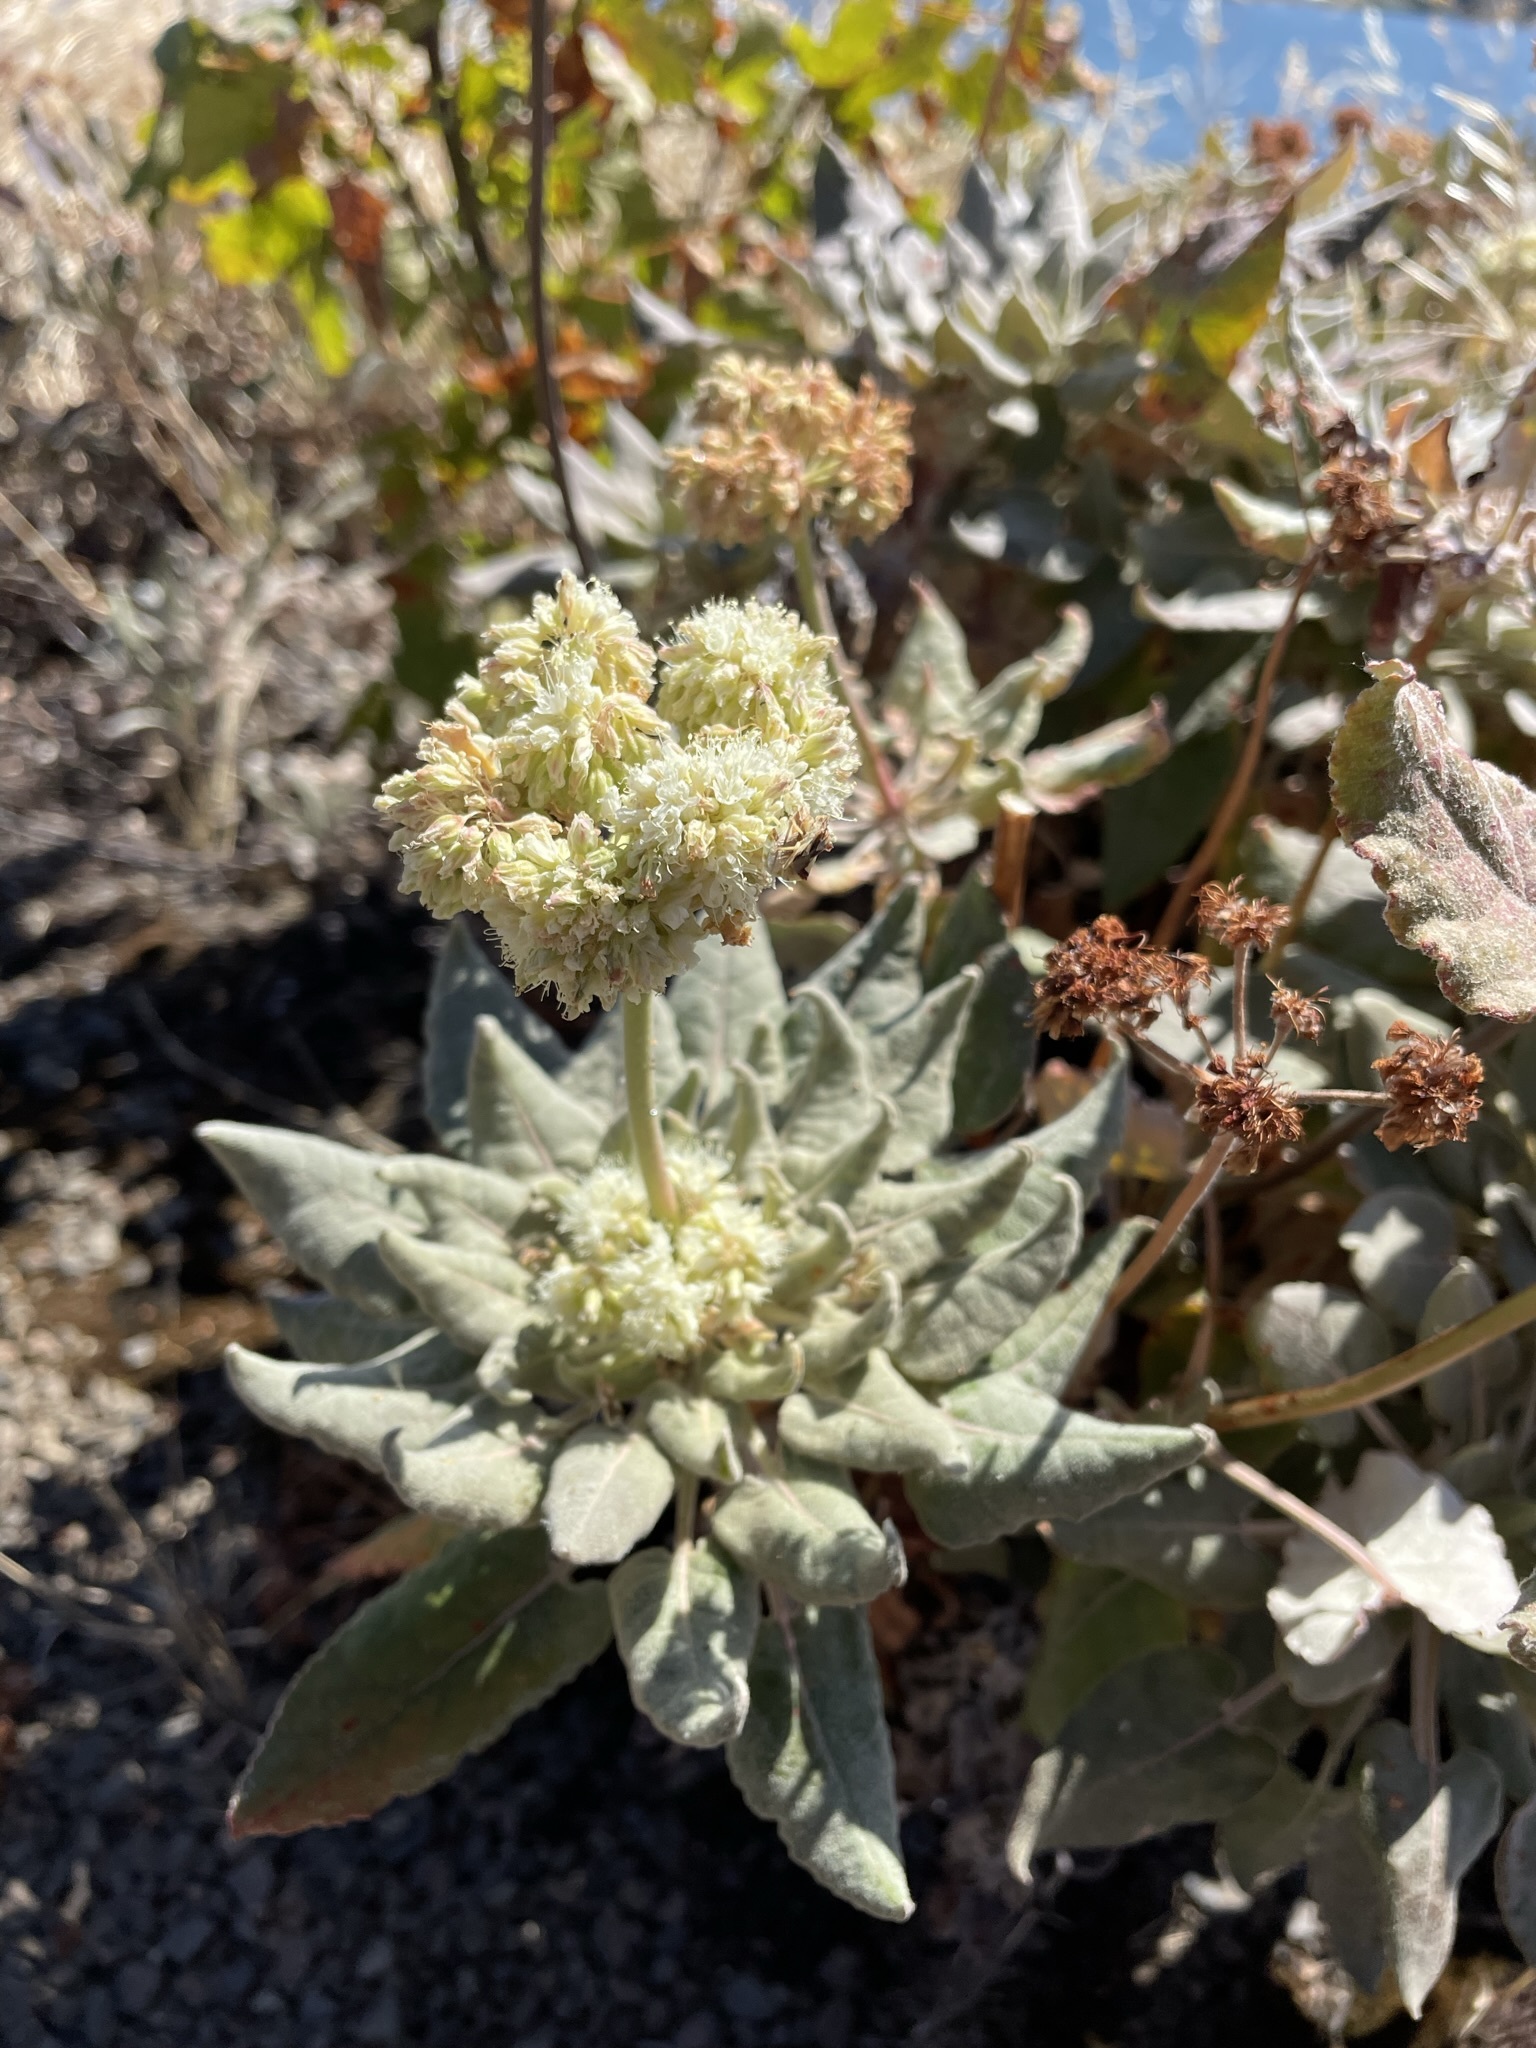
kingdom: Plantae
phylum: Tracheophyta
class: Magnoliopsida
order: Caryophyllales
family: Polygonaceae
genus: Eriogonum
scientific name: Eriogonum compositum
